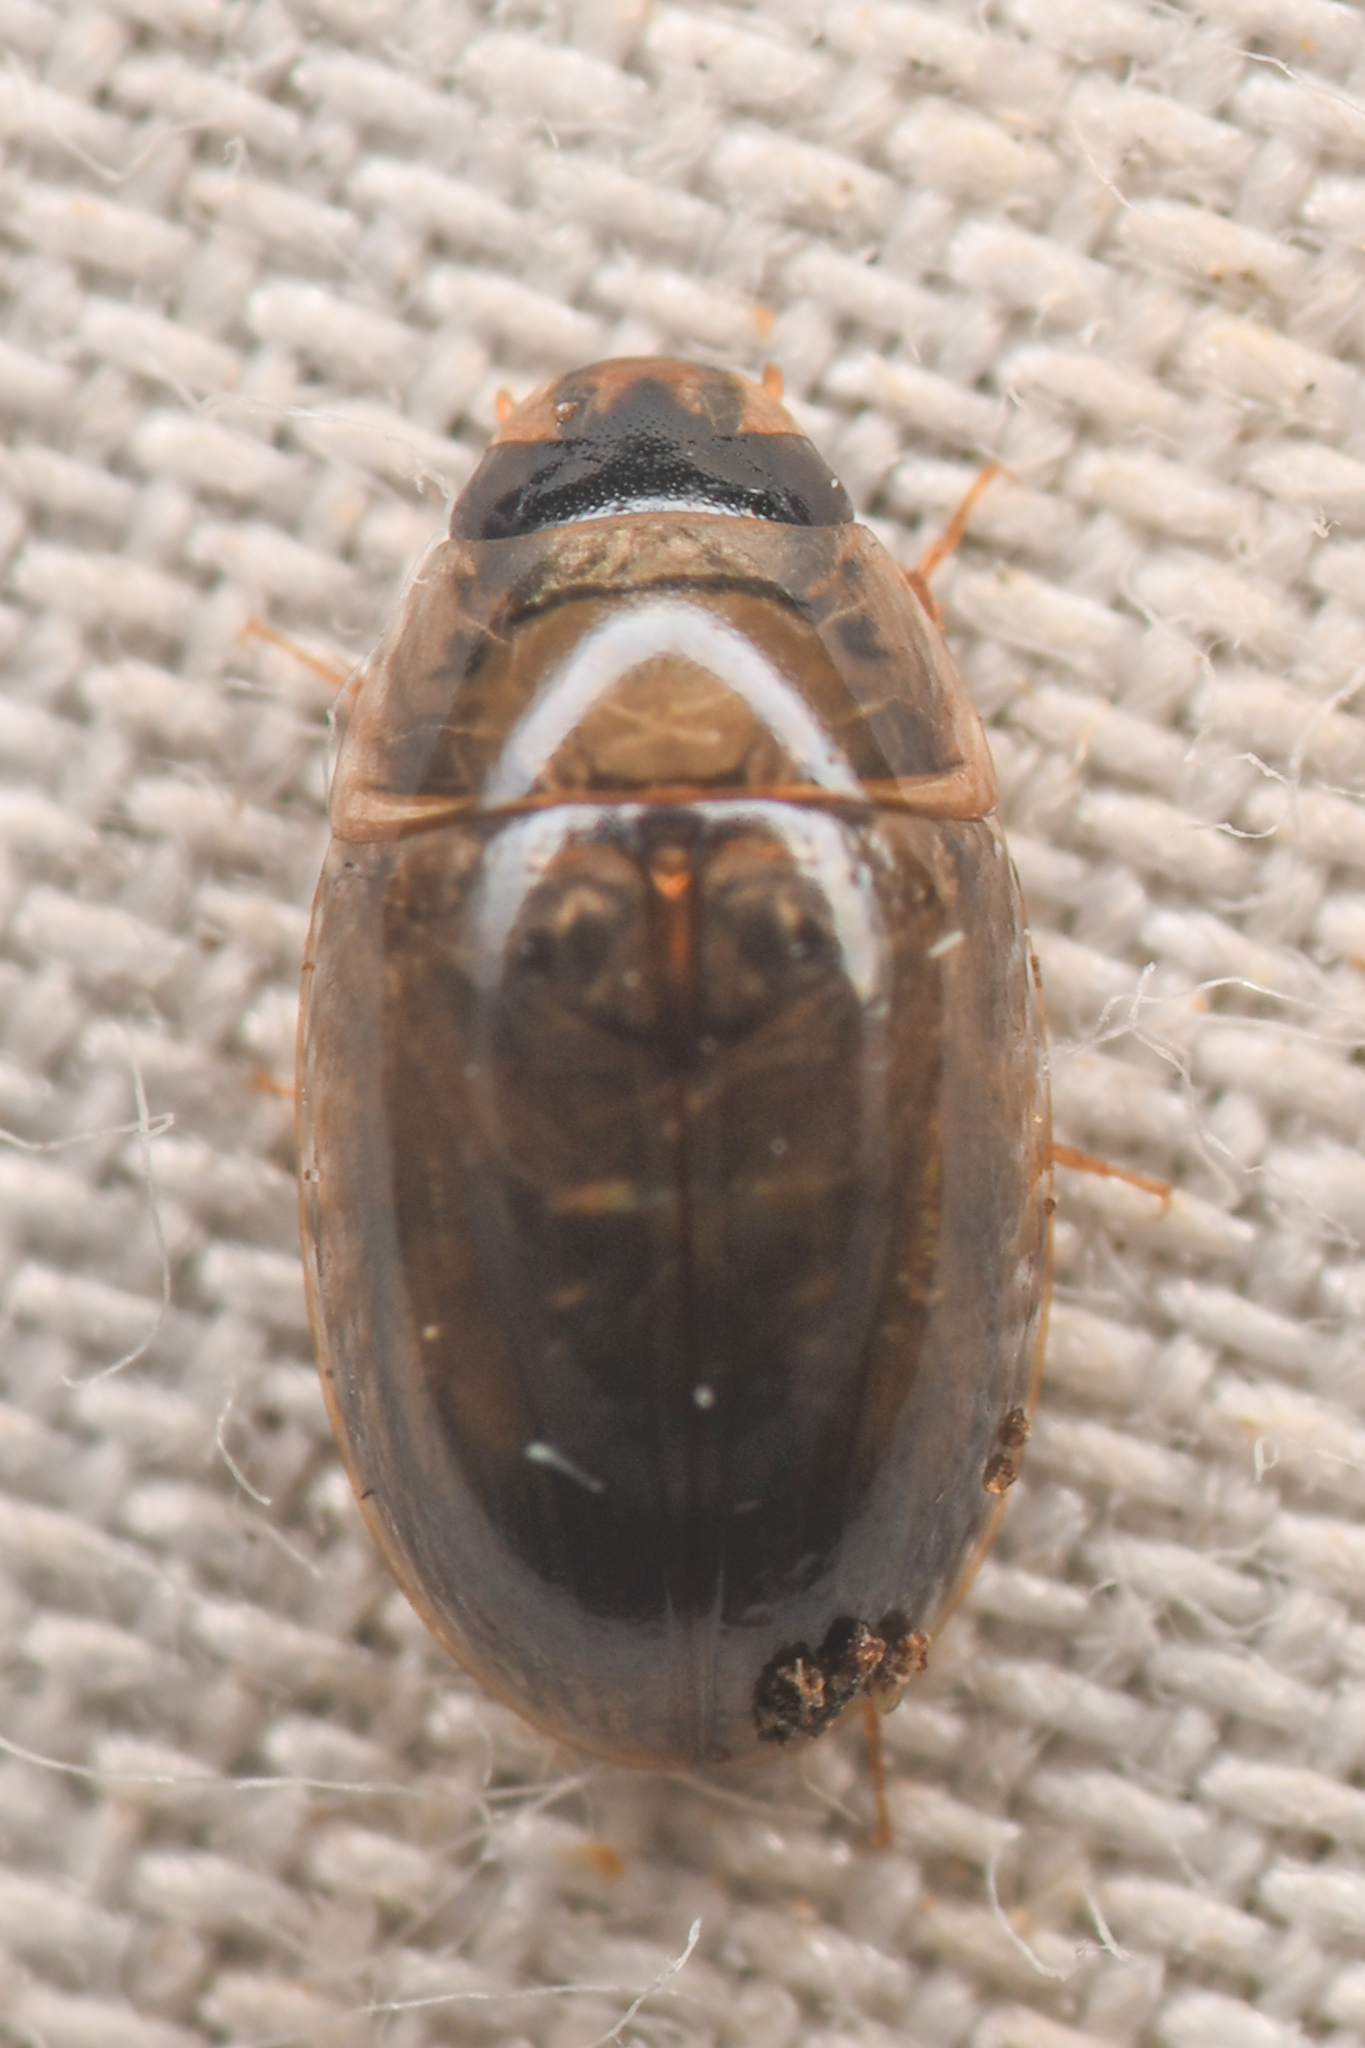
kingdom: Animalia
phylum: Arthropoda
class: Insecta
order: Coleoptera
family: Hydrophilidae
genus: Enochrus
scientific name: Enochrus
